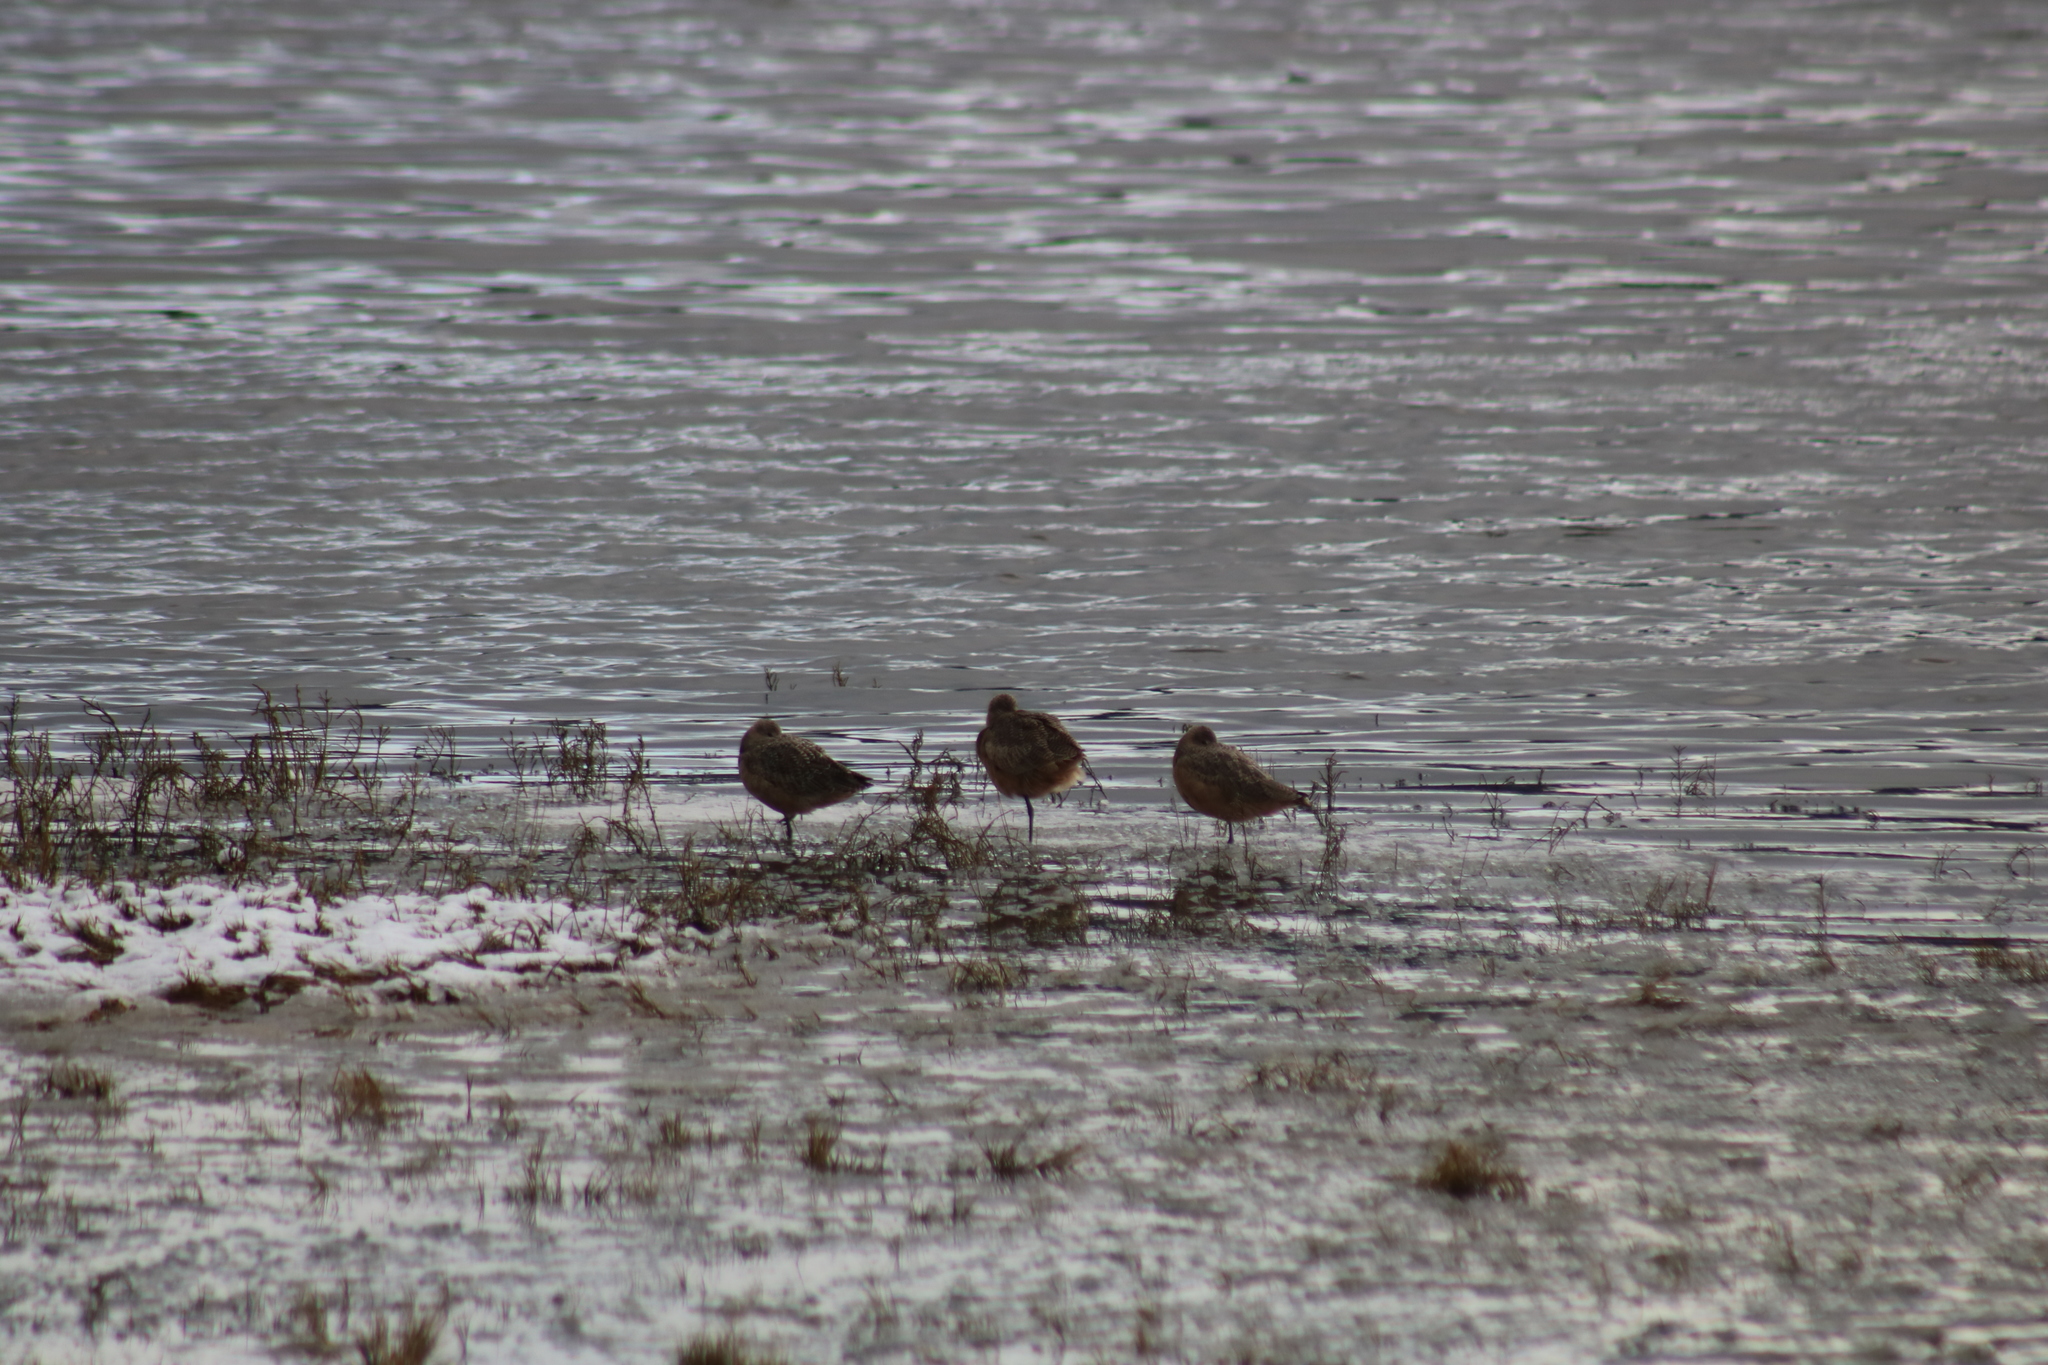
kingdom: Animalia
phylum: Chordata
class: Aves
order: Charadriiformes
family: Scolopacidae
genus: Limosa
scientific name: Limosa fedoa
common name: Marbled godwit
